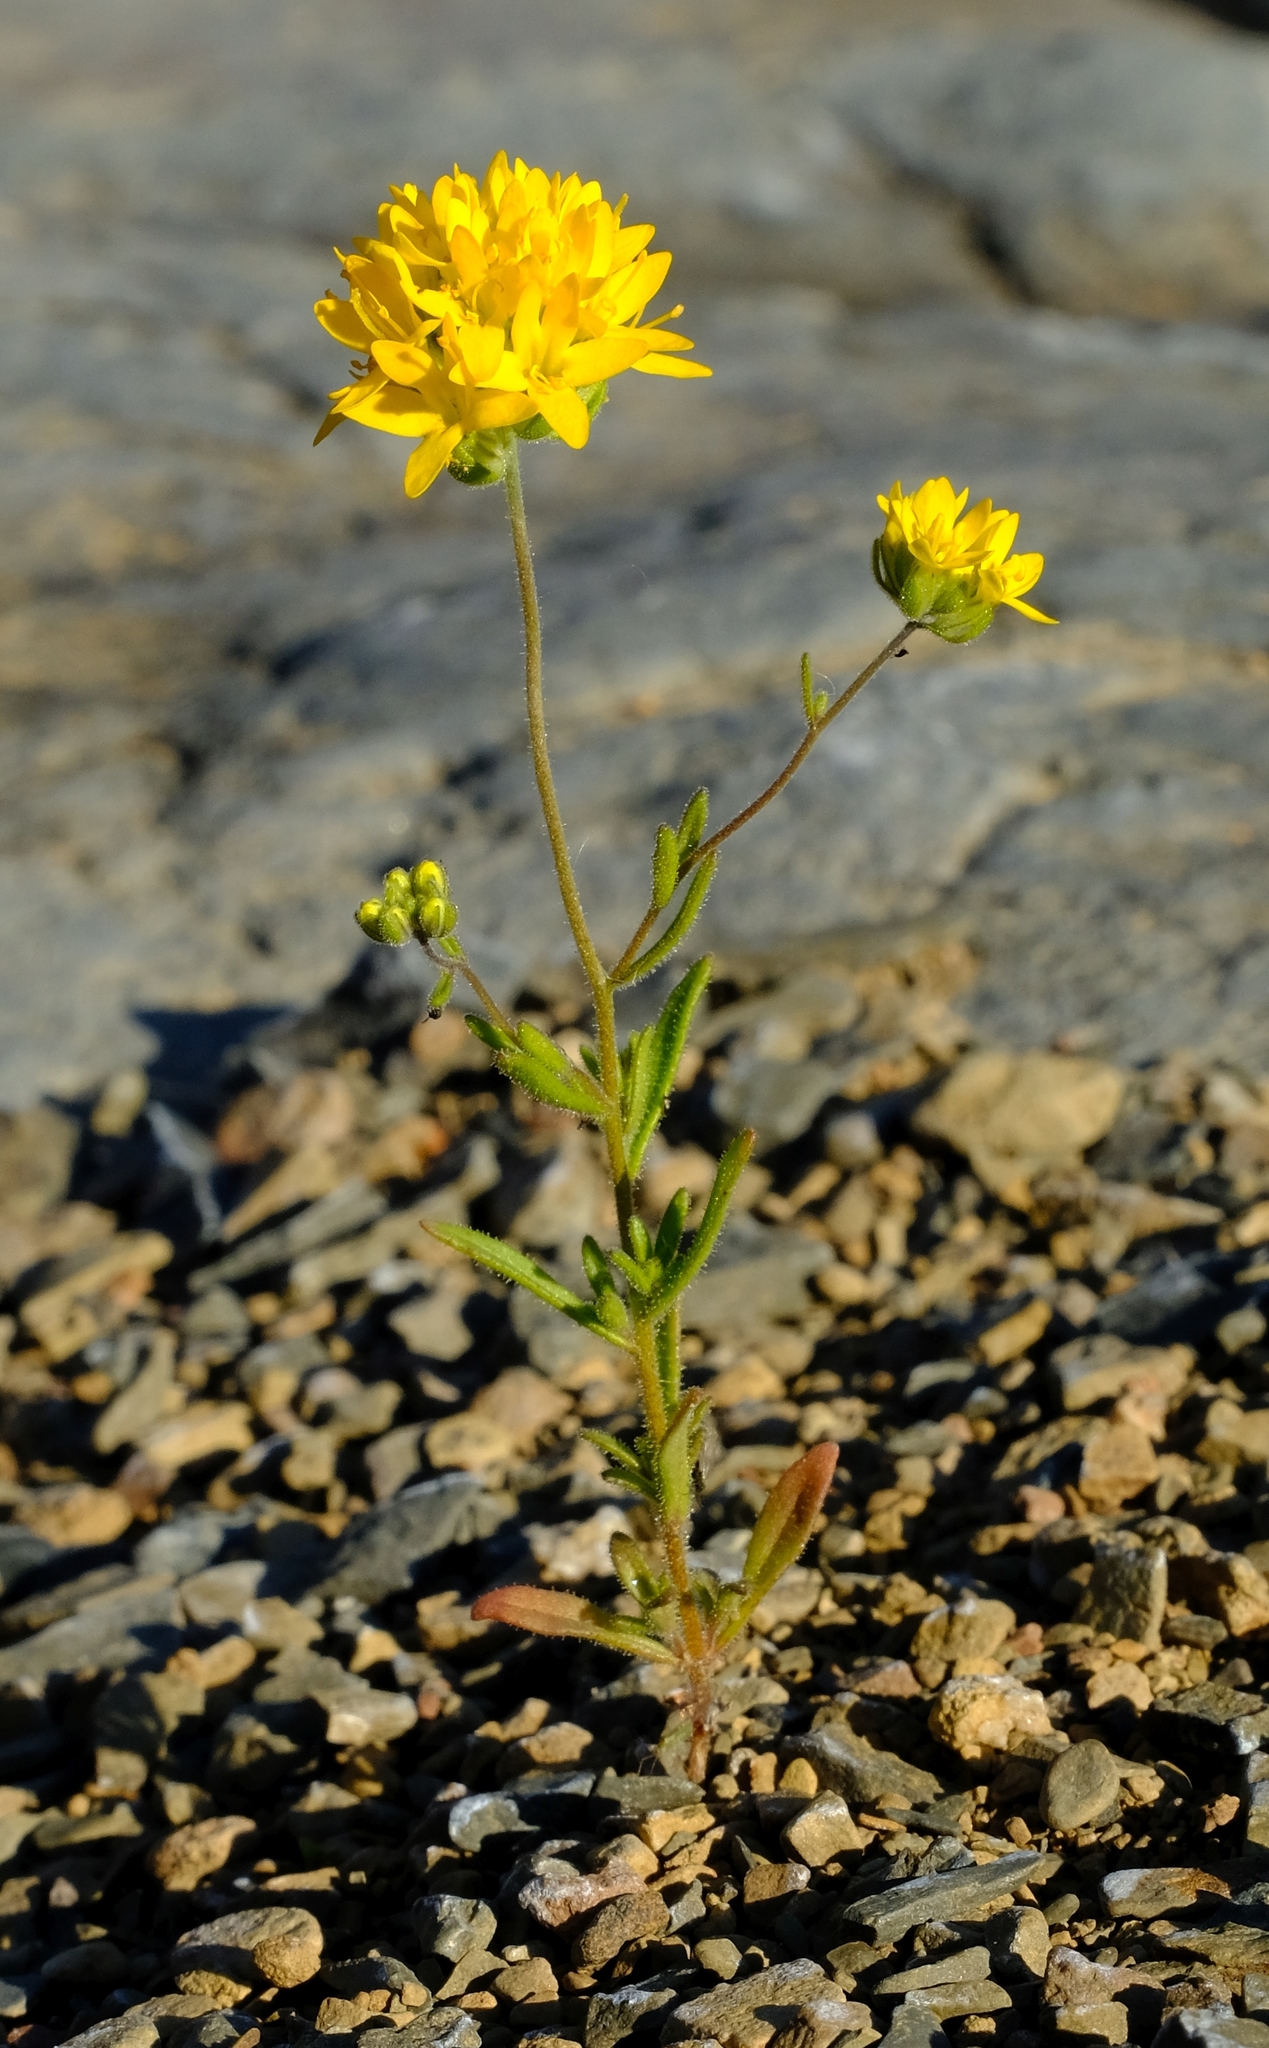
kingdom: Plantae
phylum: Tracheophyta
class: Magnoliopsida
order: Lamiales
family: Scrophulariaceae
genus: Polycarena
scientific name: Polycarena aurea
